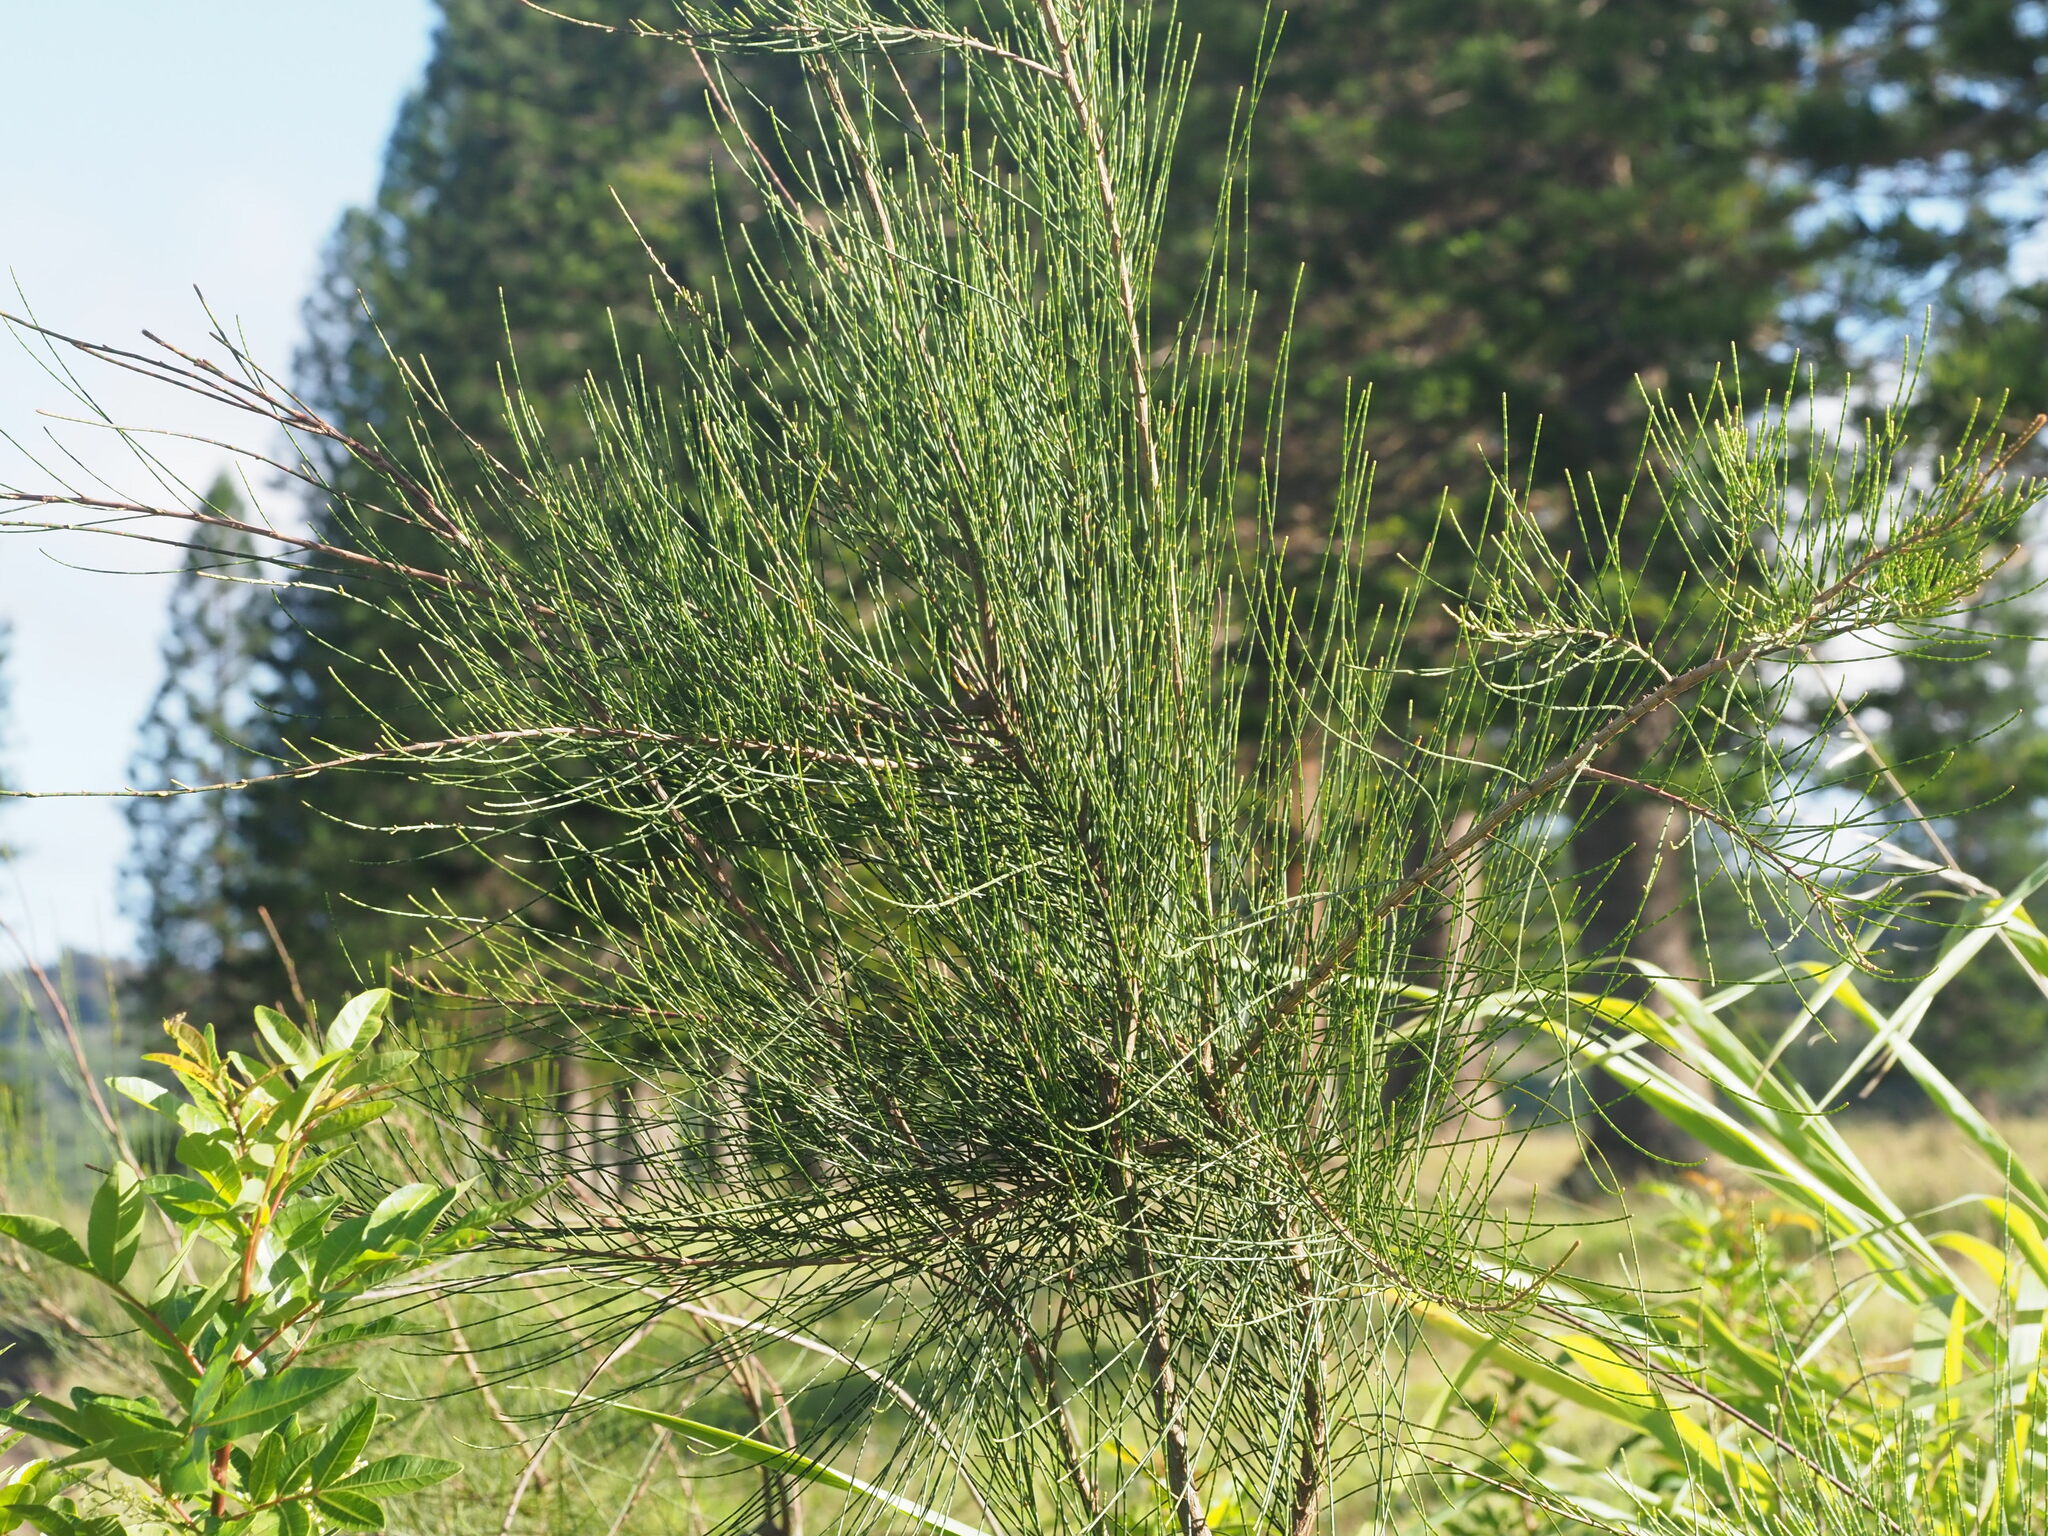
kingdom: Plantae
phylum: Tracheophyta
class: Magnoliopsida
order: Fagales
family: Casuarinaceae
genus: Casuarina
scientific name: Casuarina equisetifolia
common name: Beach sheoak
